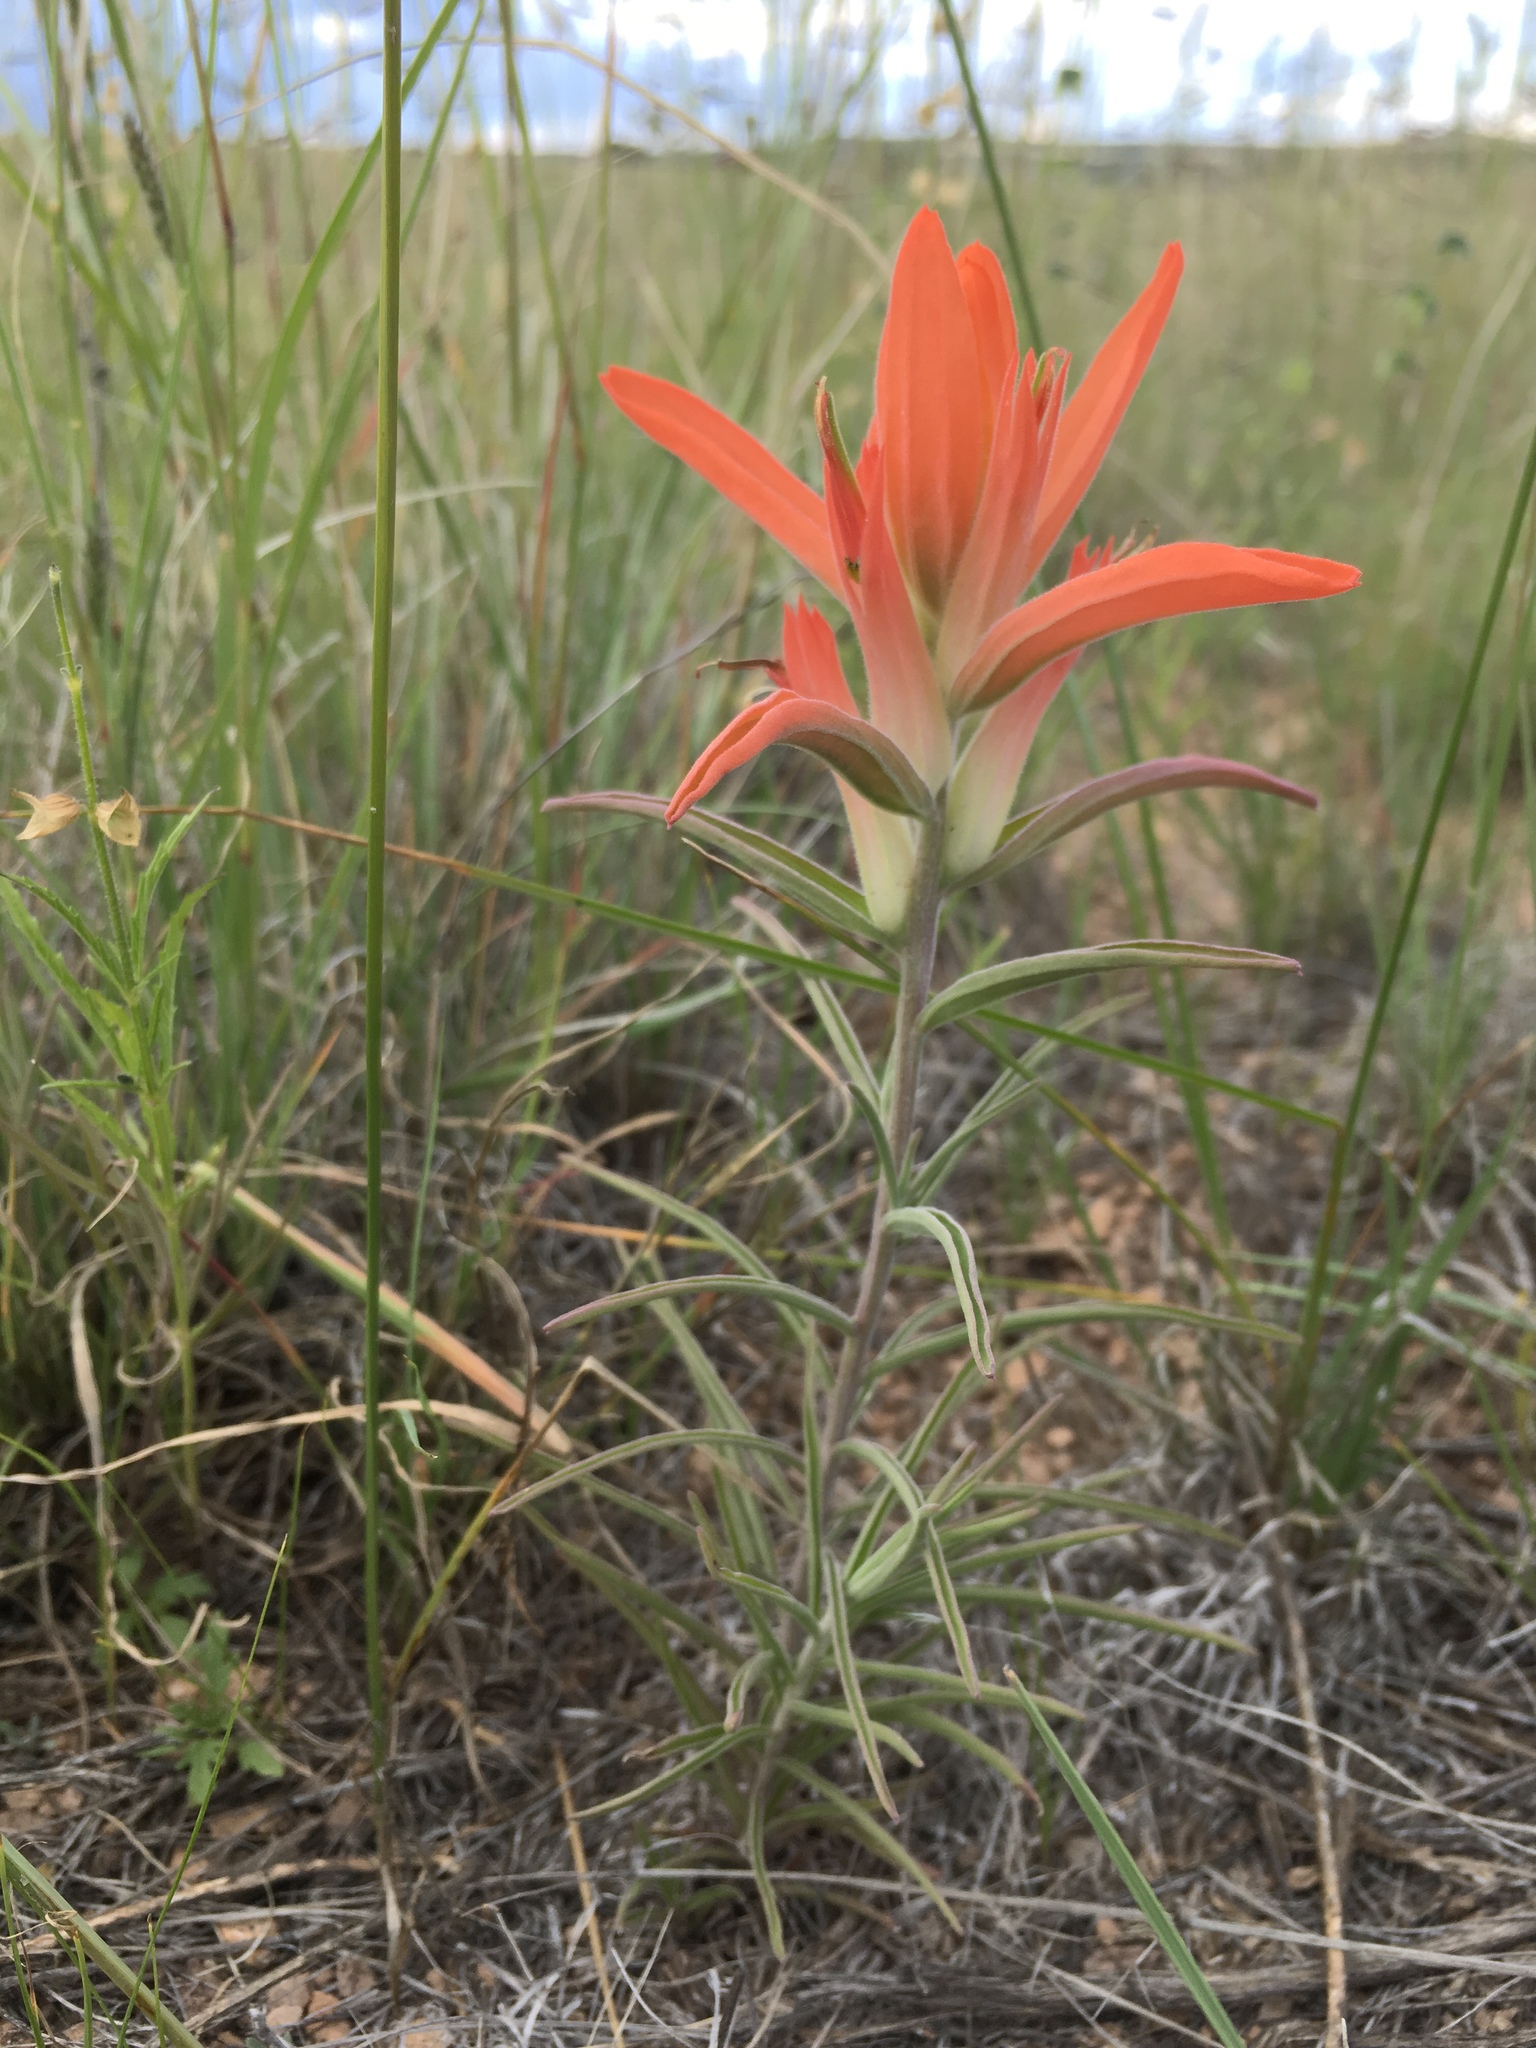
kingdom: Plantae
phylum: Tracheophyta
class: Magnoliopsida
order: Lamiales
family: Orobanchaceae
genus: Castilleja
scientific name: Castilleja integra
